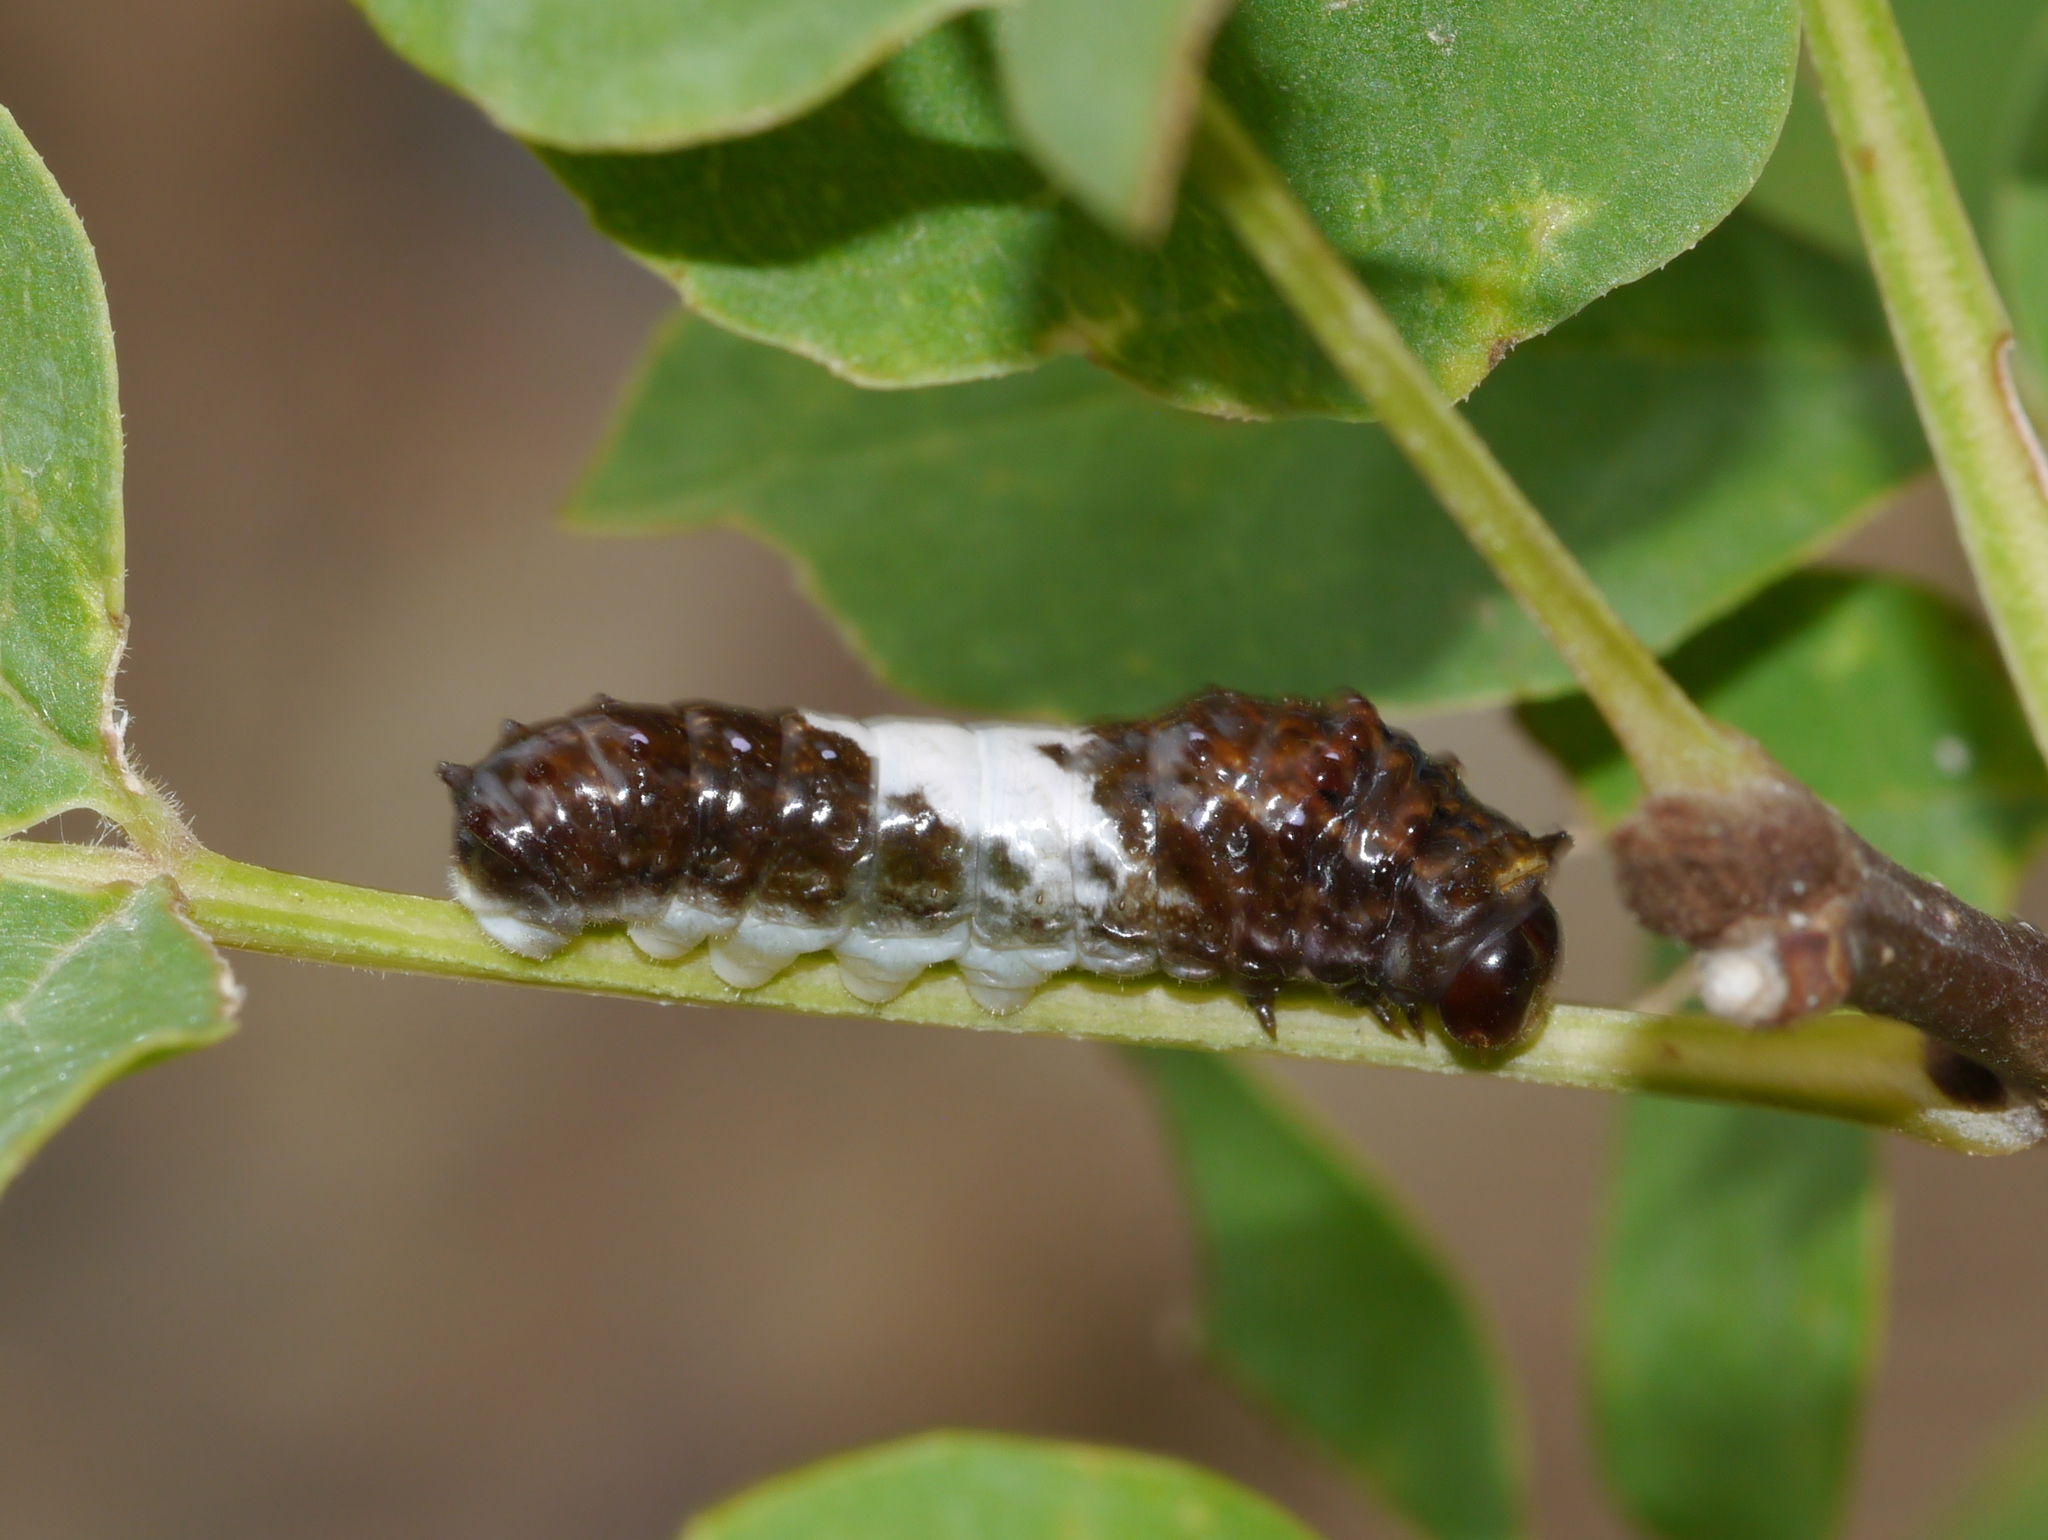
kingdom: Animalia
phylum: Arthropoda
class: Insecta
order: Lepidoptera
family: Papilionidae
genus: Papilio
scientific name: Papilio multicaudata
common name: Two-tailed tiger swallowtail
